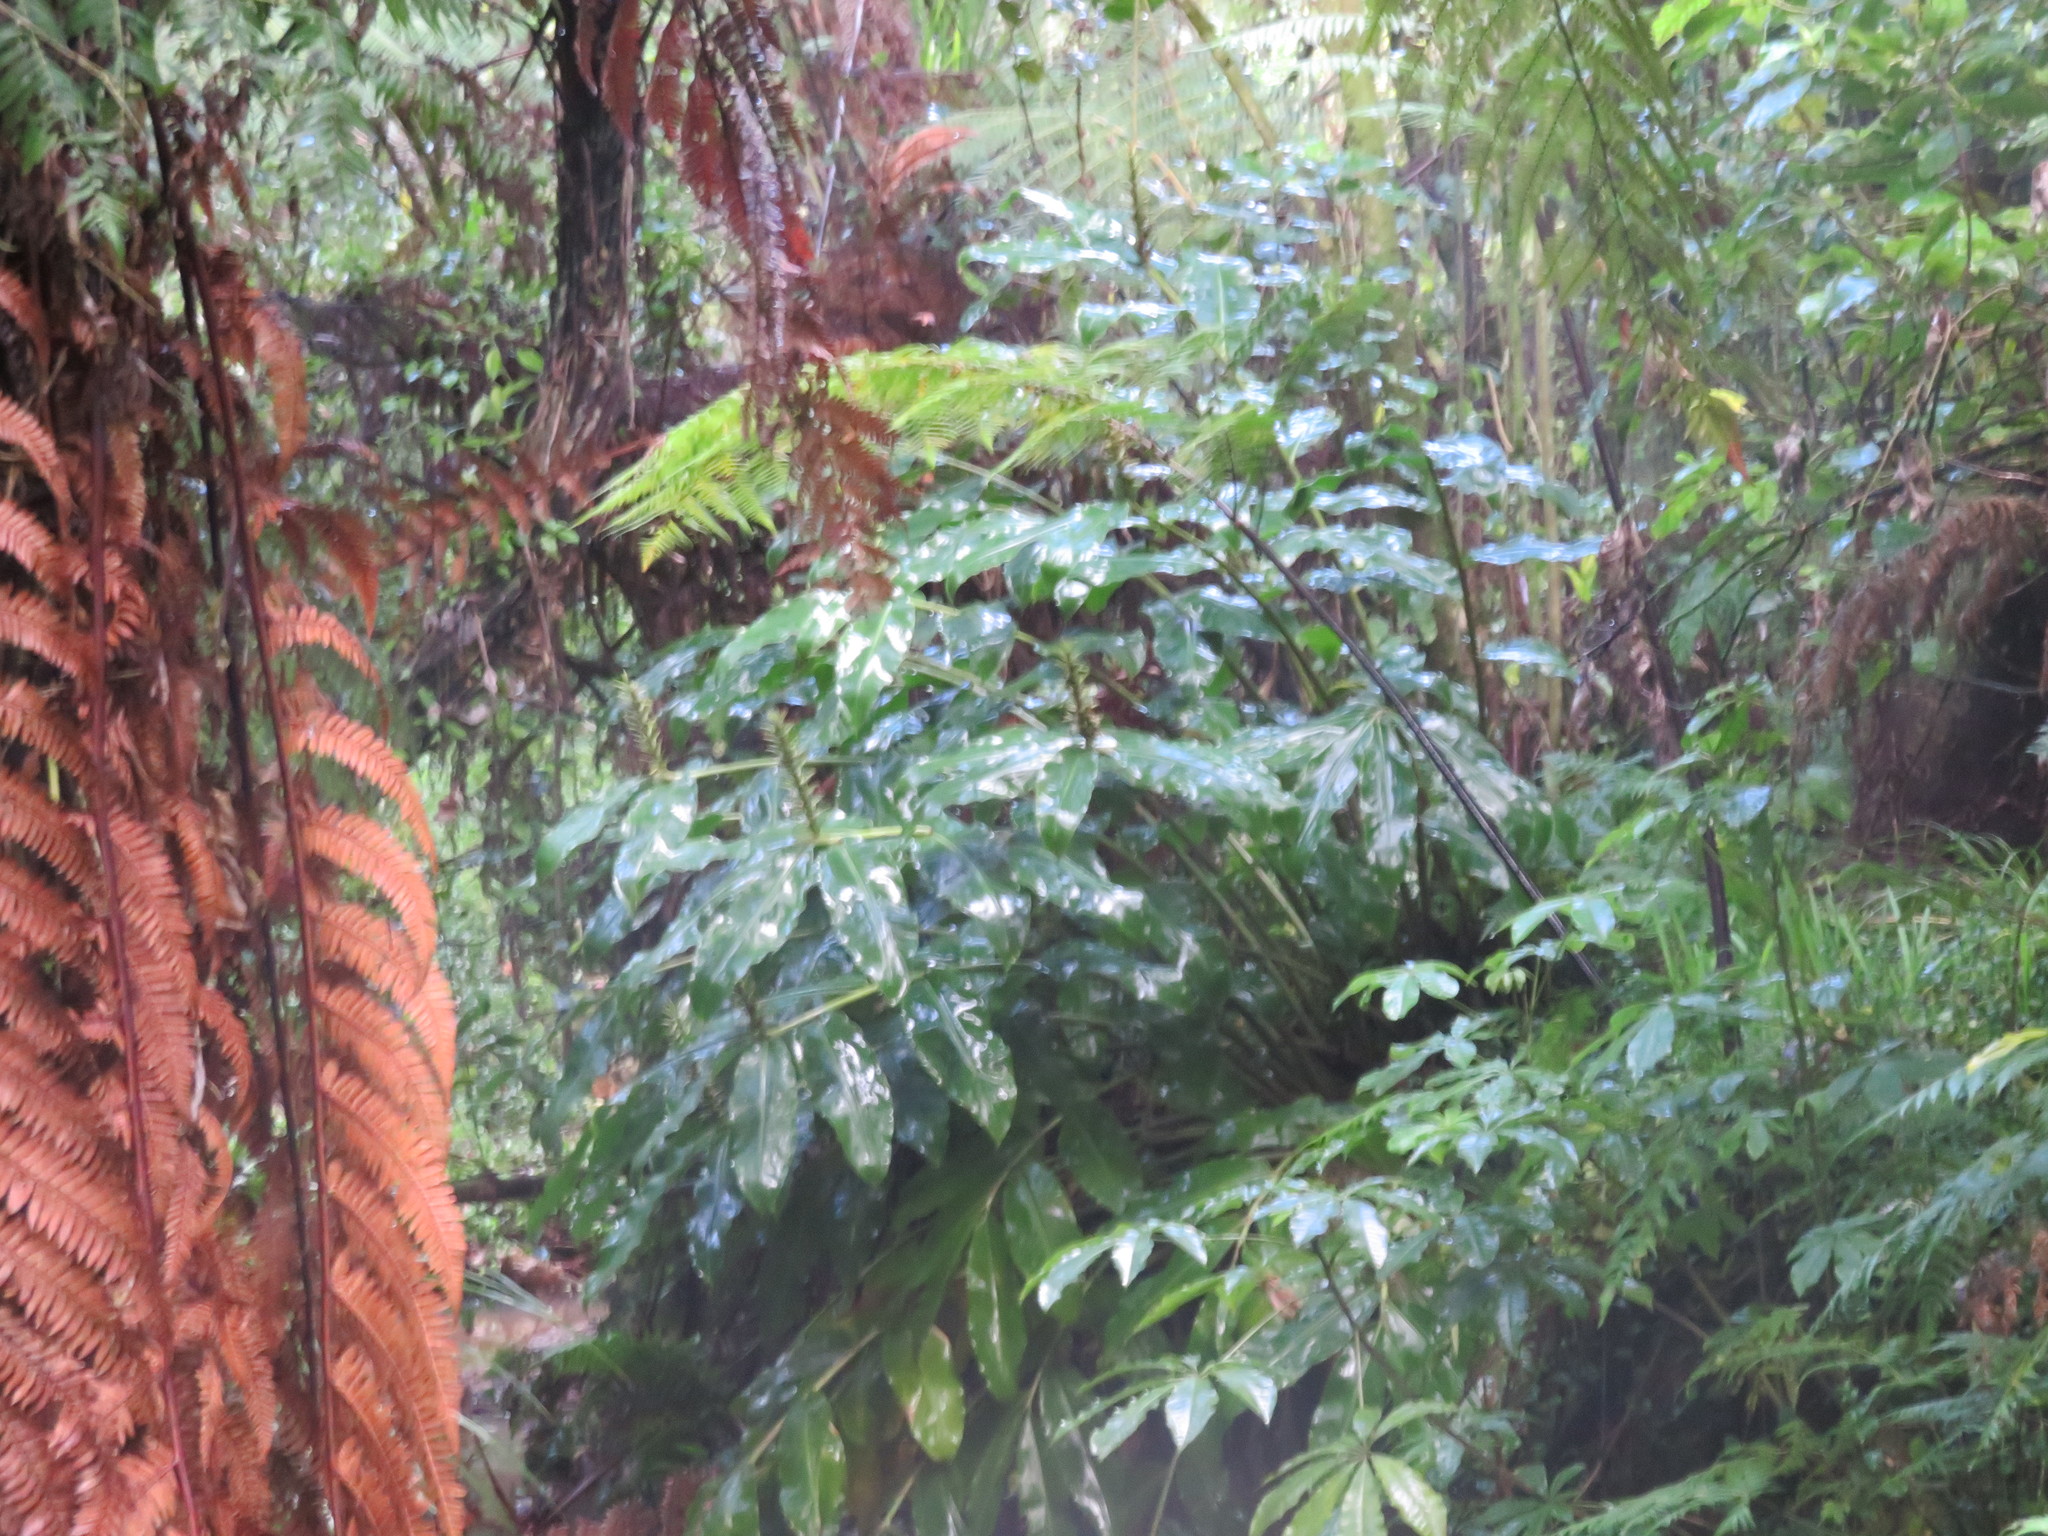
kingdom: Plantae
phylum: Tracheophyta
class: Liliopsida
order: Zingiberales
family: Zingiberaceae
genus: Hedychium
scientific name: Hedychium gardnerianum
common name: Himalayan ginger
